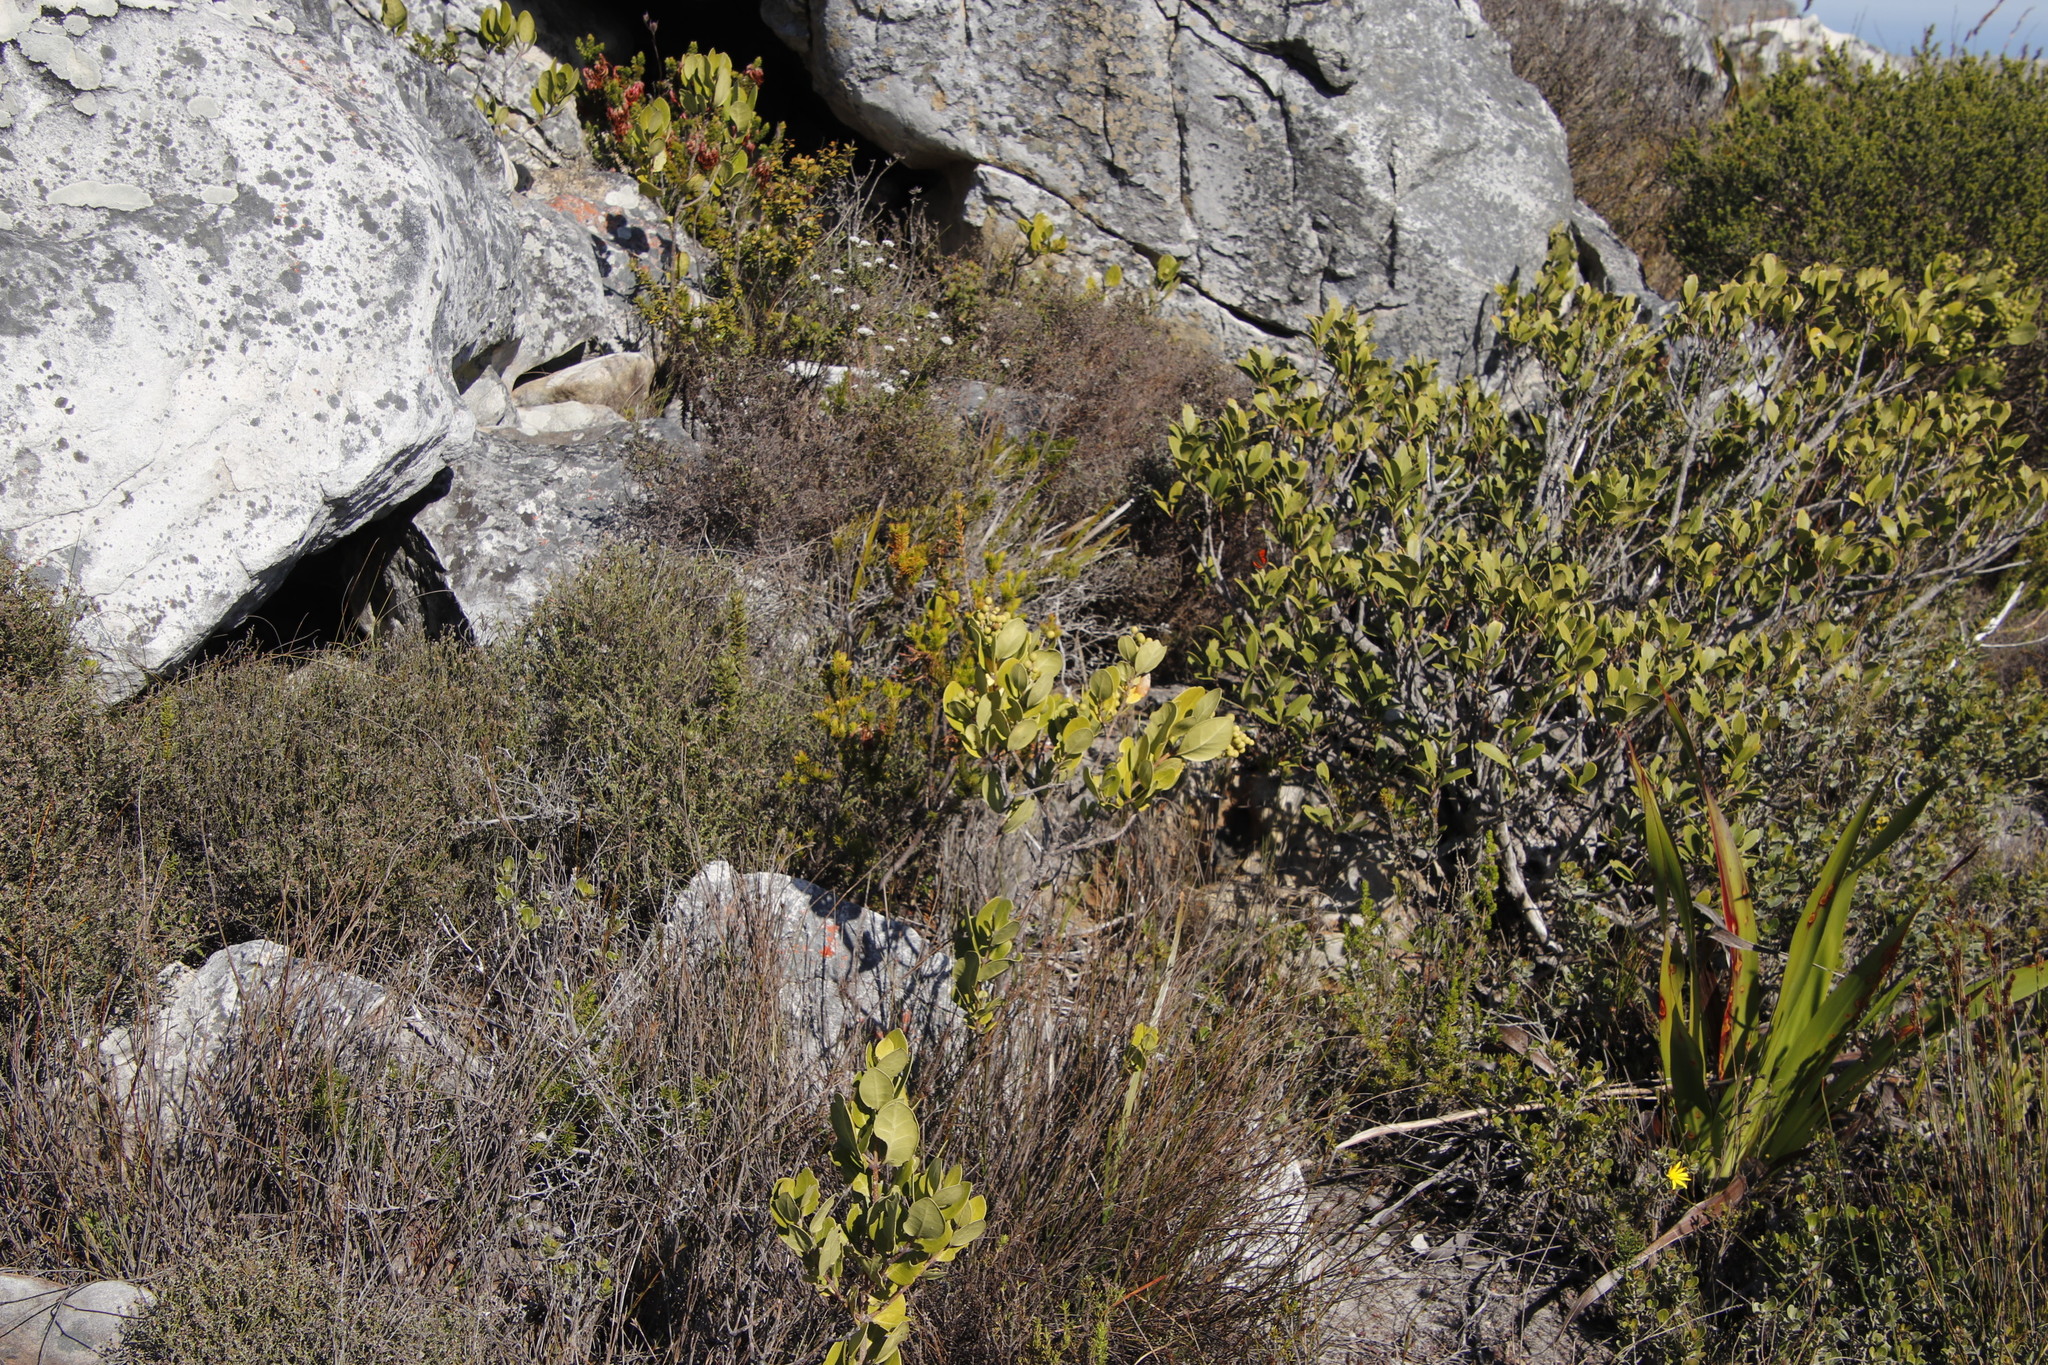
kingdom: Plantae
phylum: Tracheophyta
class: Magnoliopsida
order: Lamiales
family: Oleaceae
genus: Olea
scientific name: Olea capensis
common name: Black ironwood
